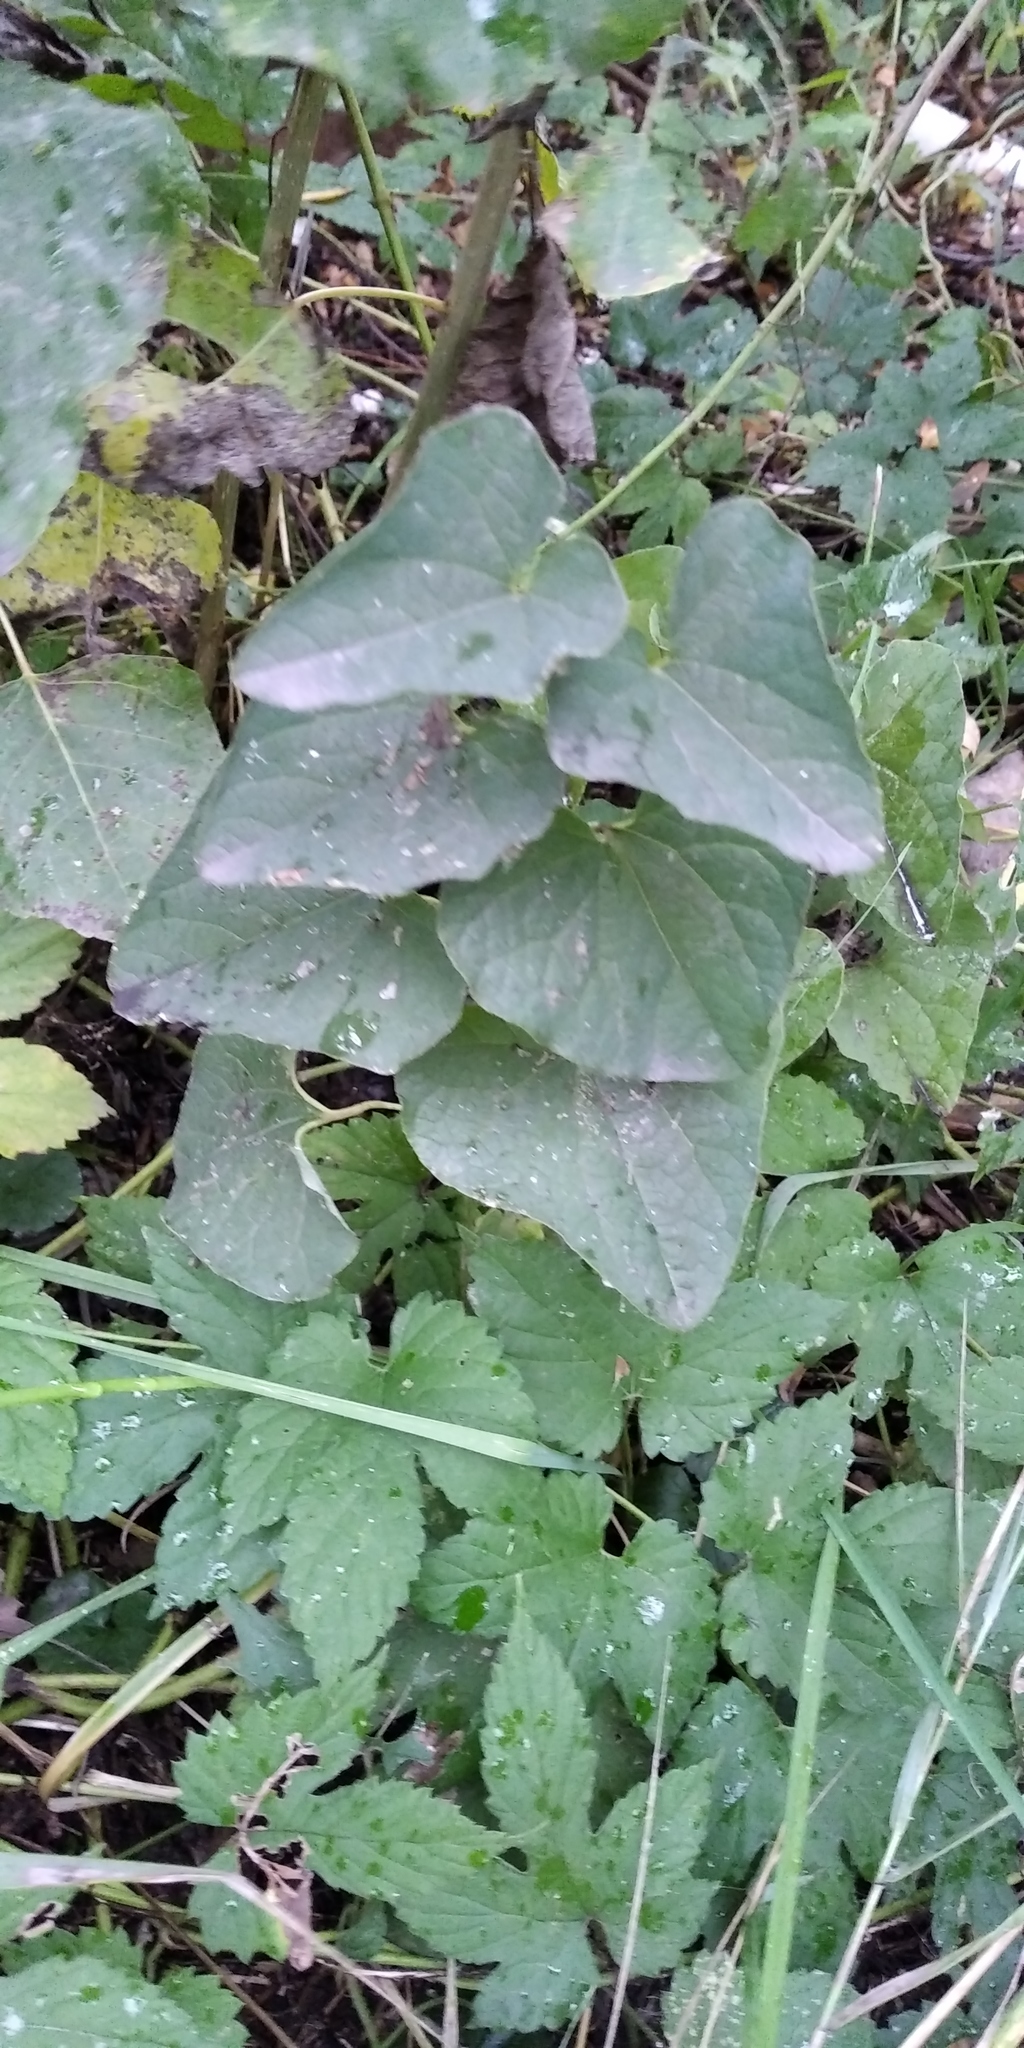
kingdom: Plantae
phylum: Tracheophyta
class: Magnoliopsida
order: Piperales
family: Aristolochiaceae
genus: Aristolochia
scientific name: Aristolochia clematitis
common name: Birthwort
